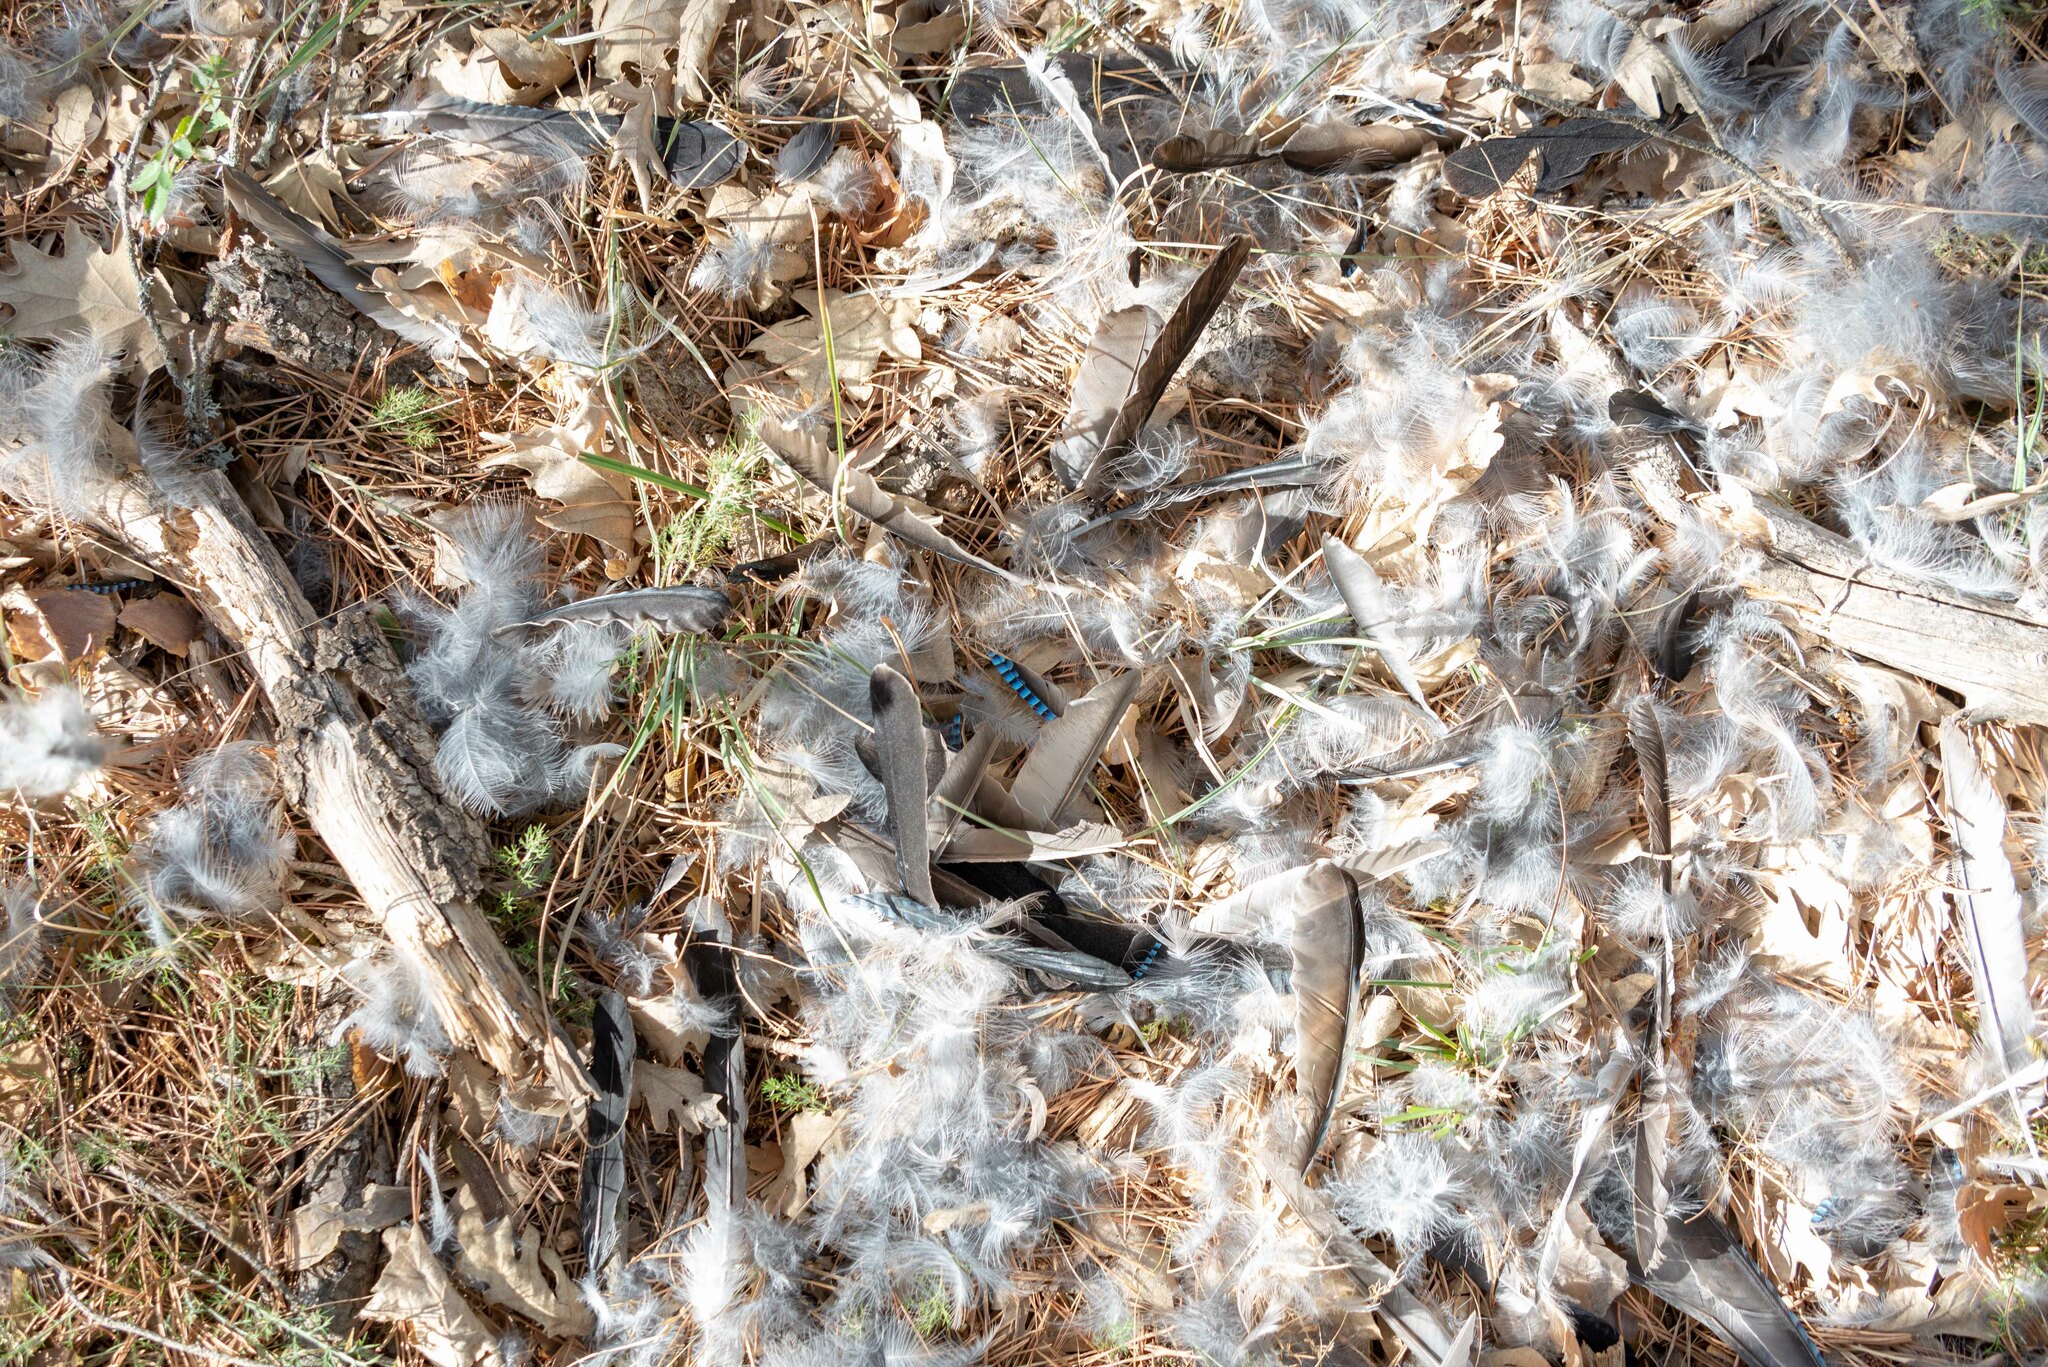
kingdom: Animalia
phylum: Chordata
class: Aves
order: Passeriformes
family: Corvidae
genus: Garrulus
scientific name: Garrulus glandarius
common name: Eurasian jay
